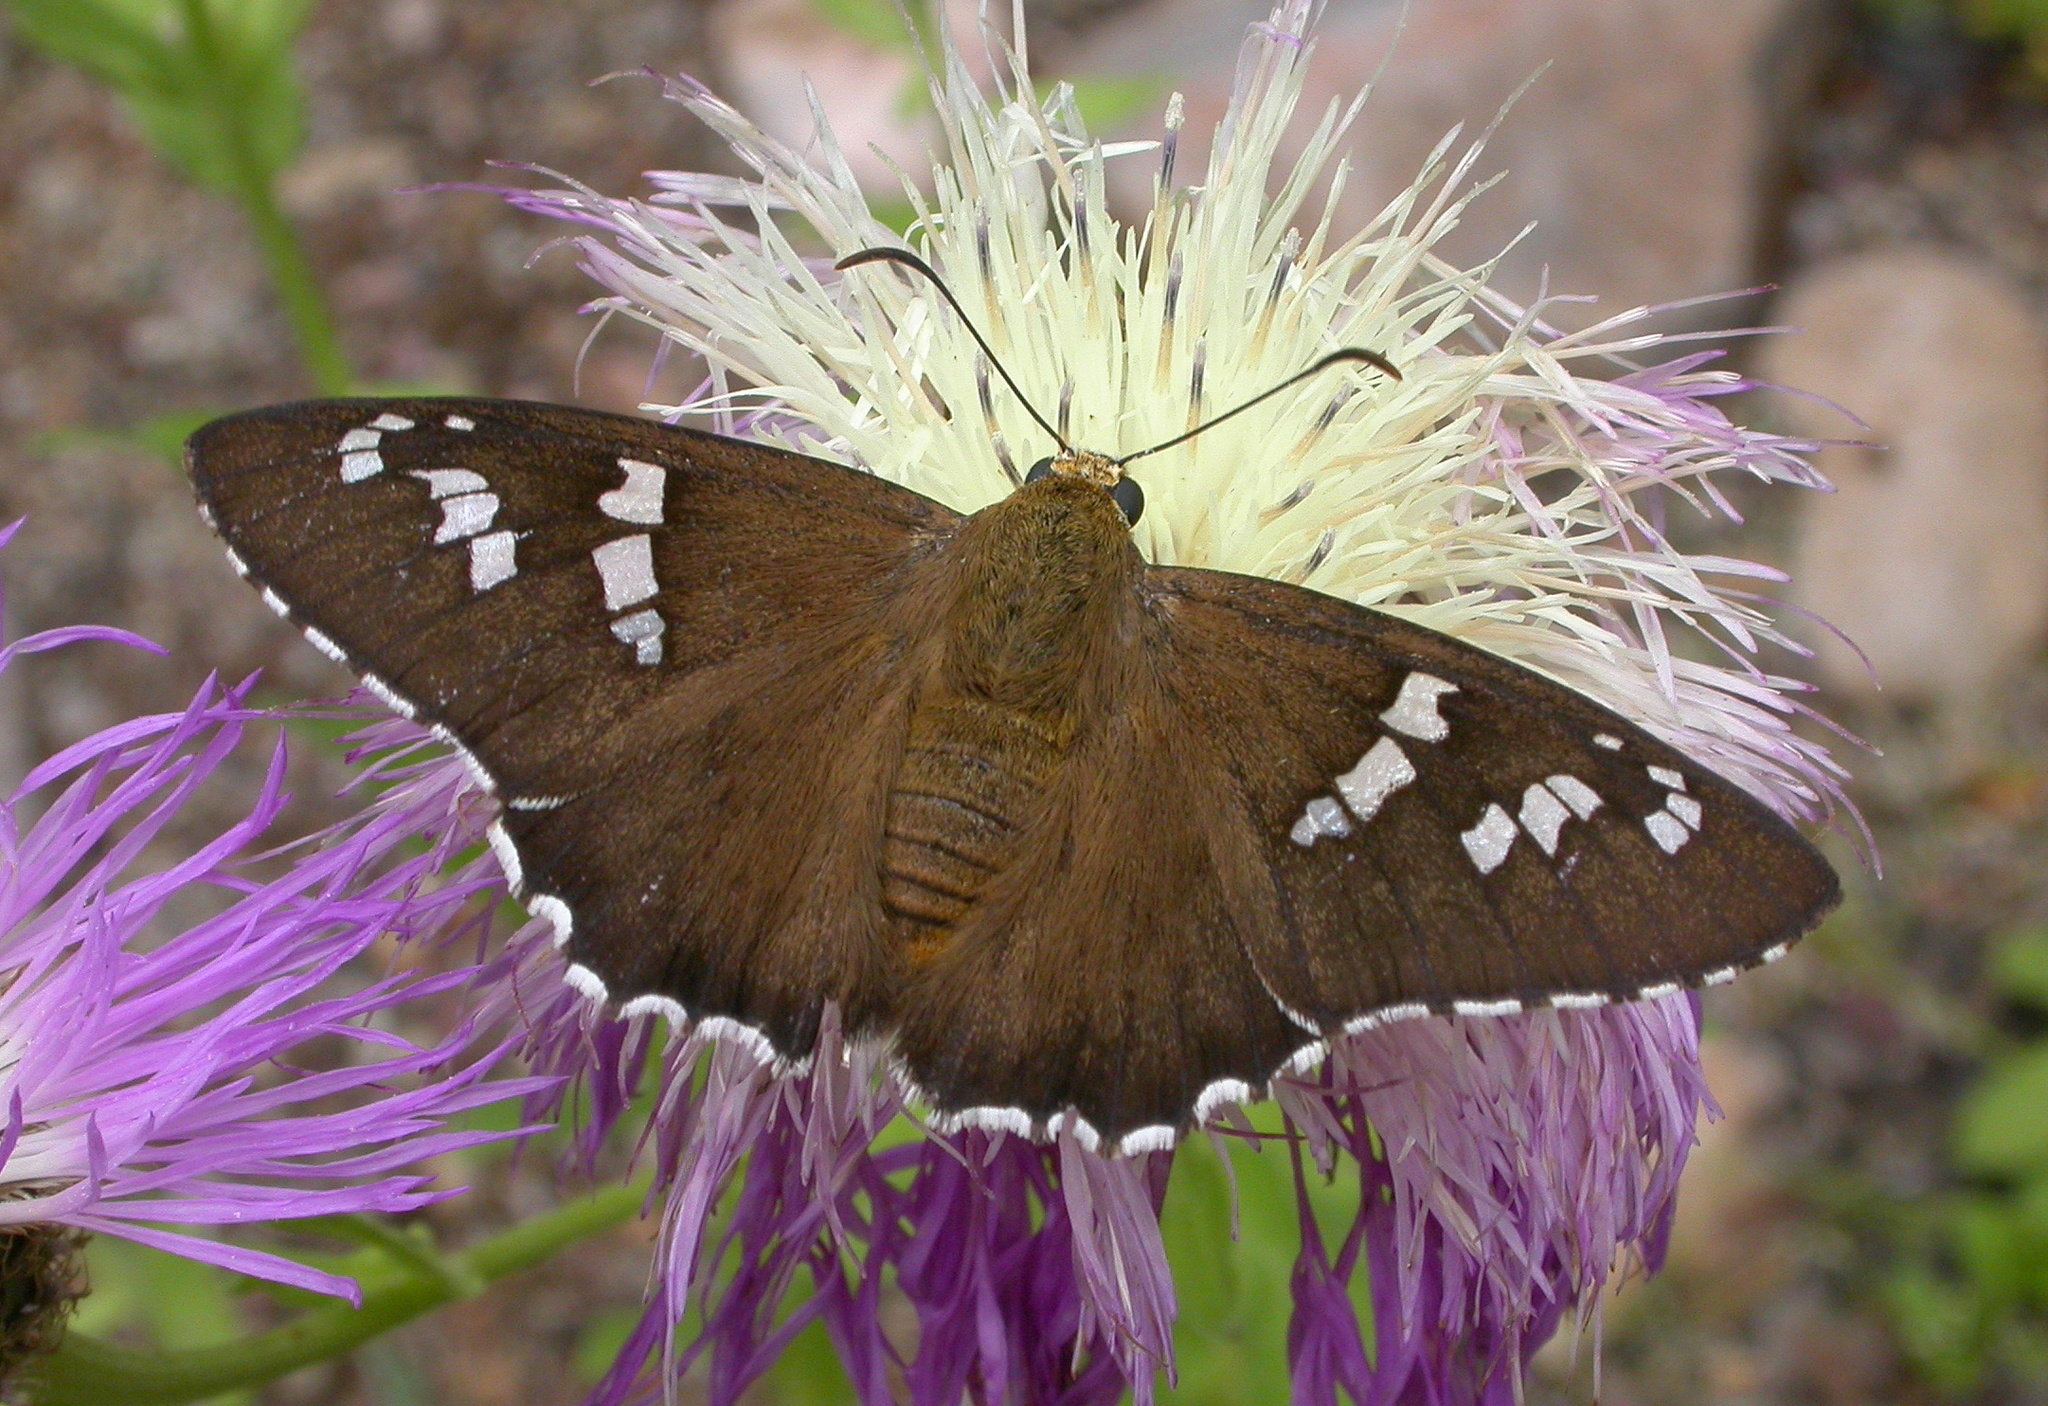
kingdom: Animalia
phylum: Arthropoda
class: Insecta
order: Lepidoptera
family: Hesperiidae
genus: Pyrrhopyge
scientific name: Pyrrhopyge araxes
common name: Dull firetip
